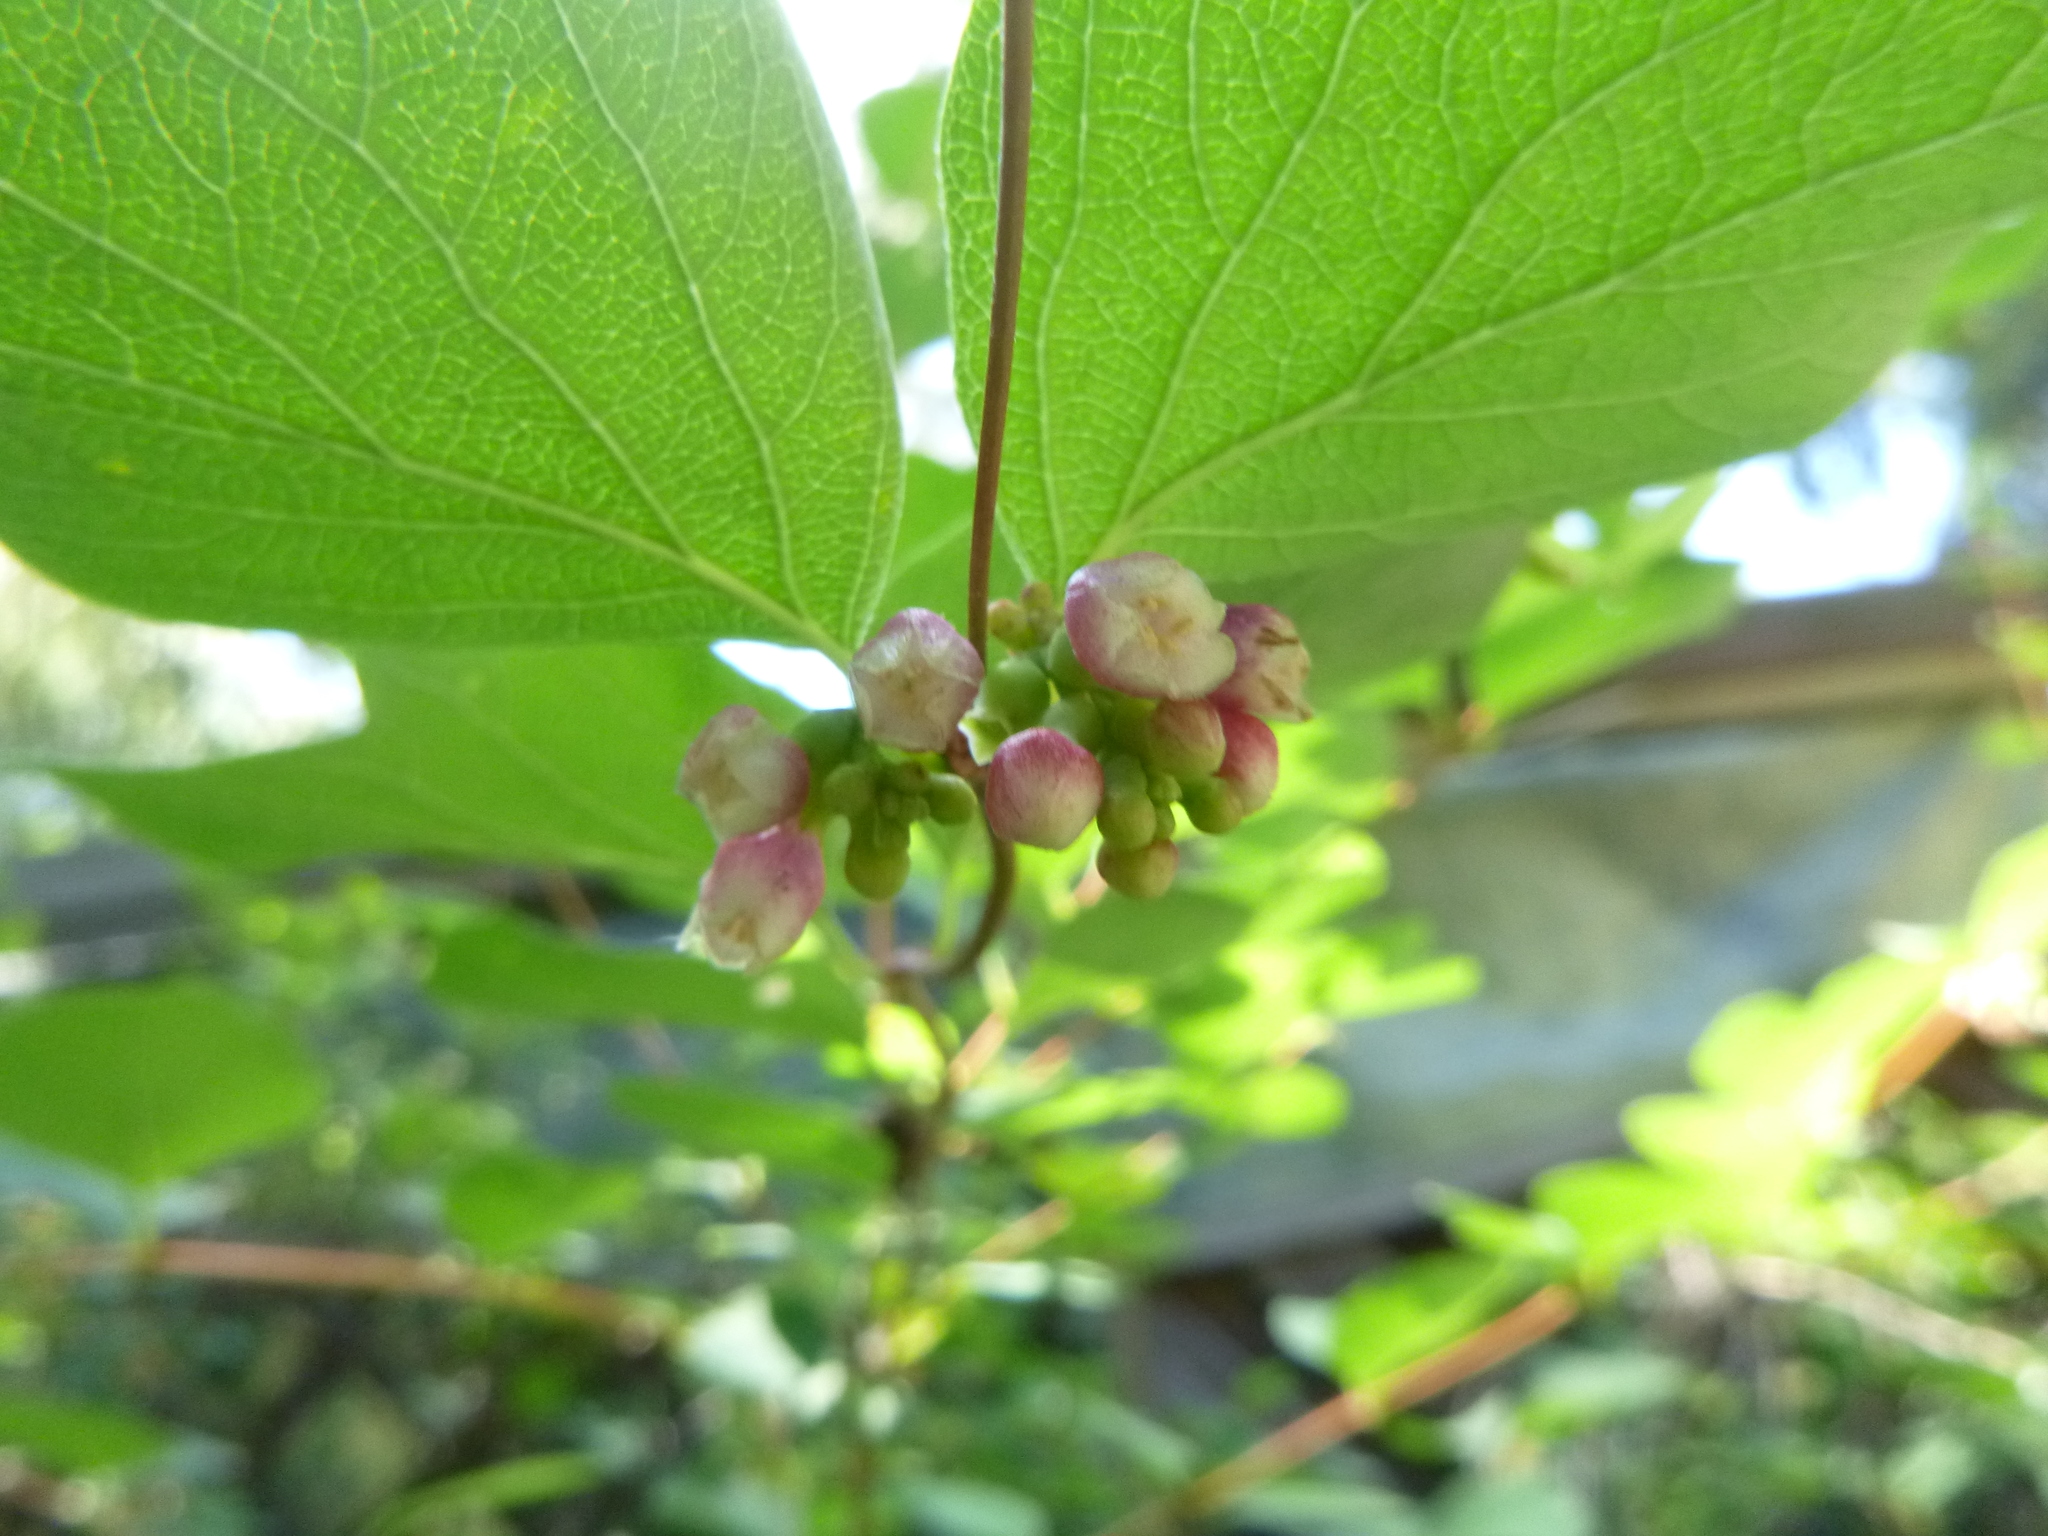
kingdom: Plantae
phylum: Tracheophyta
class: Magnoliopsida
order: Dipsacales
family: Caprifoliaceae
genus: Symphoricarpos
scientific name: Symphoricarpos albus
